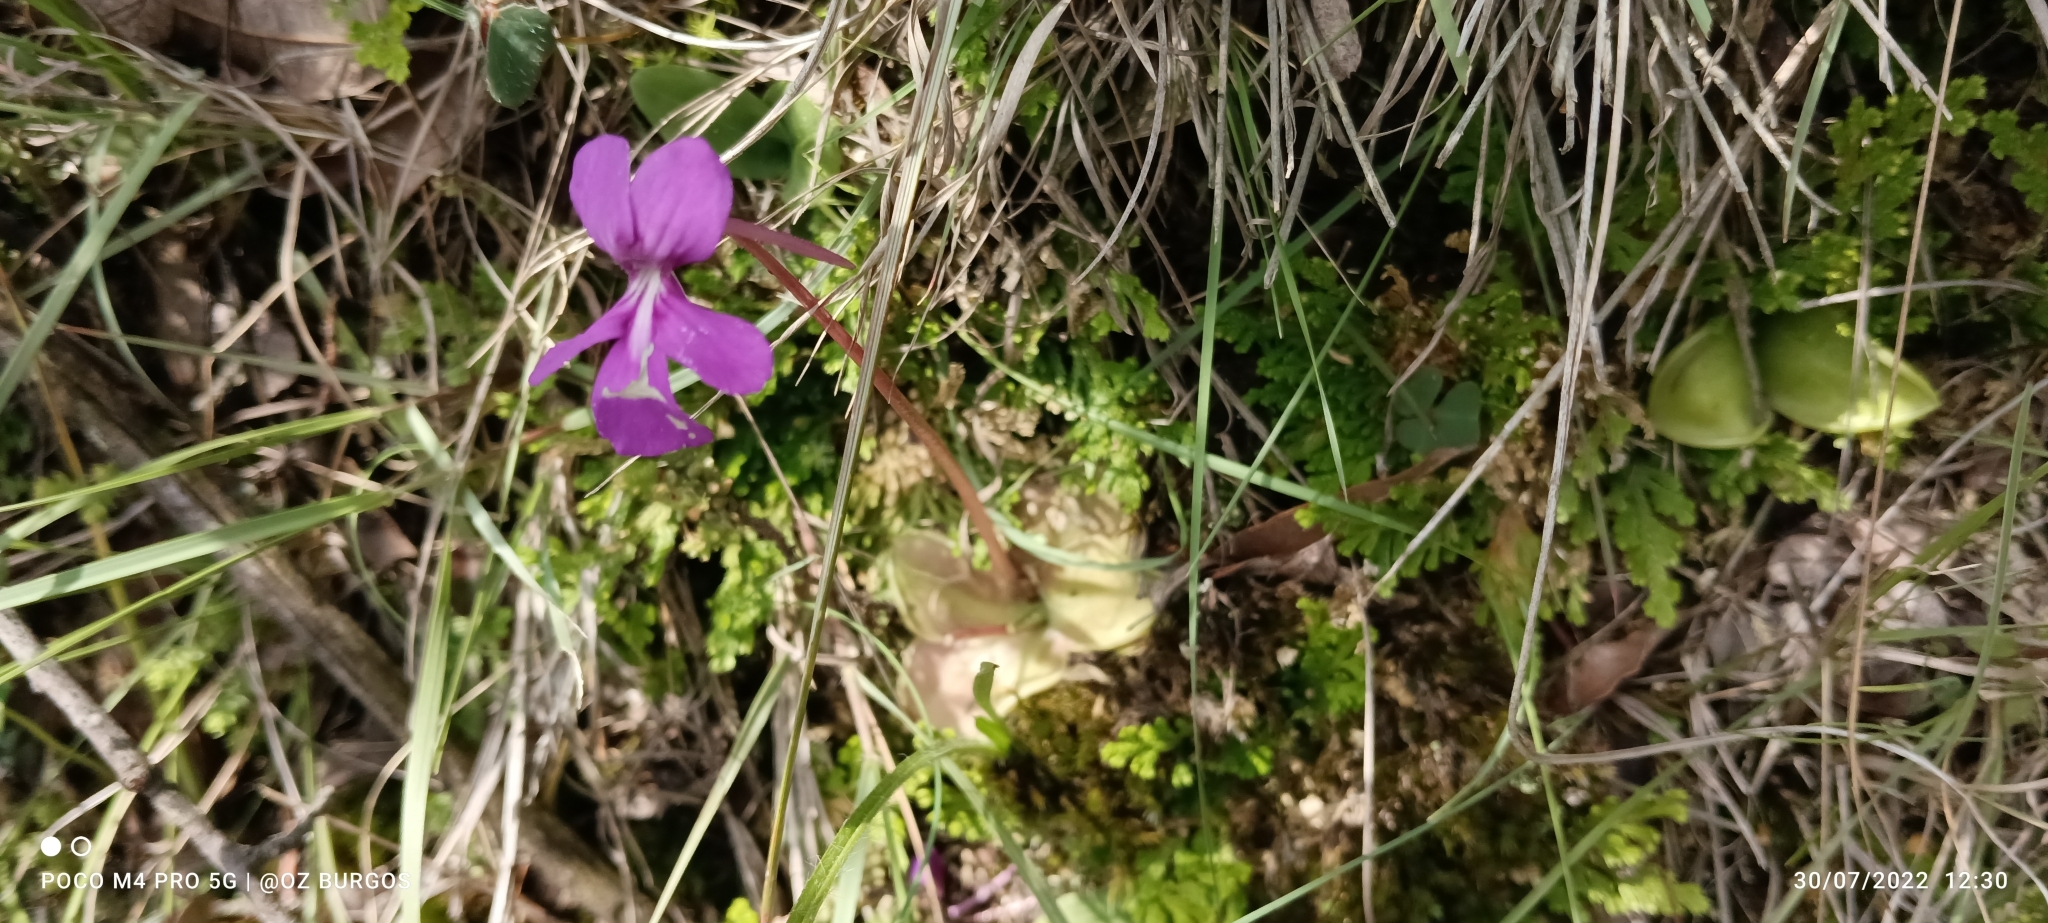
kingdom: Plantae
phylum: Tracheophyta
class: Magnoliopsida
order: Lamiales
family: Lentibulariaceae
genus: Pinguicula
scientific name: Pinguicula moranensis
